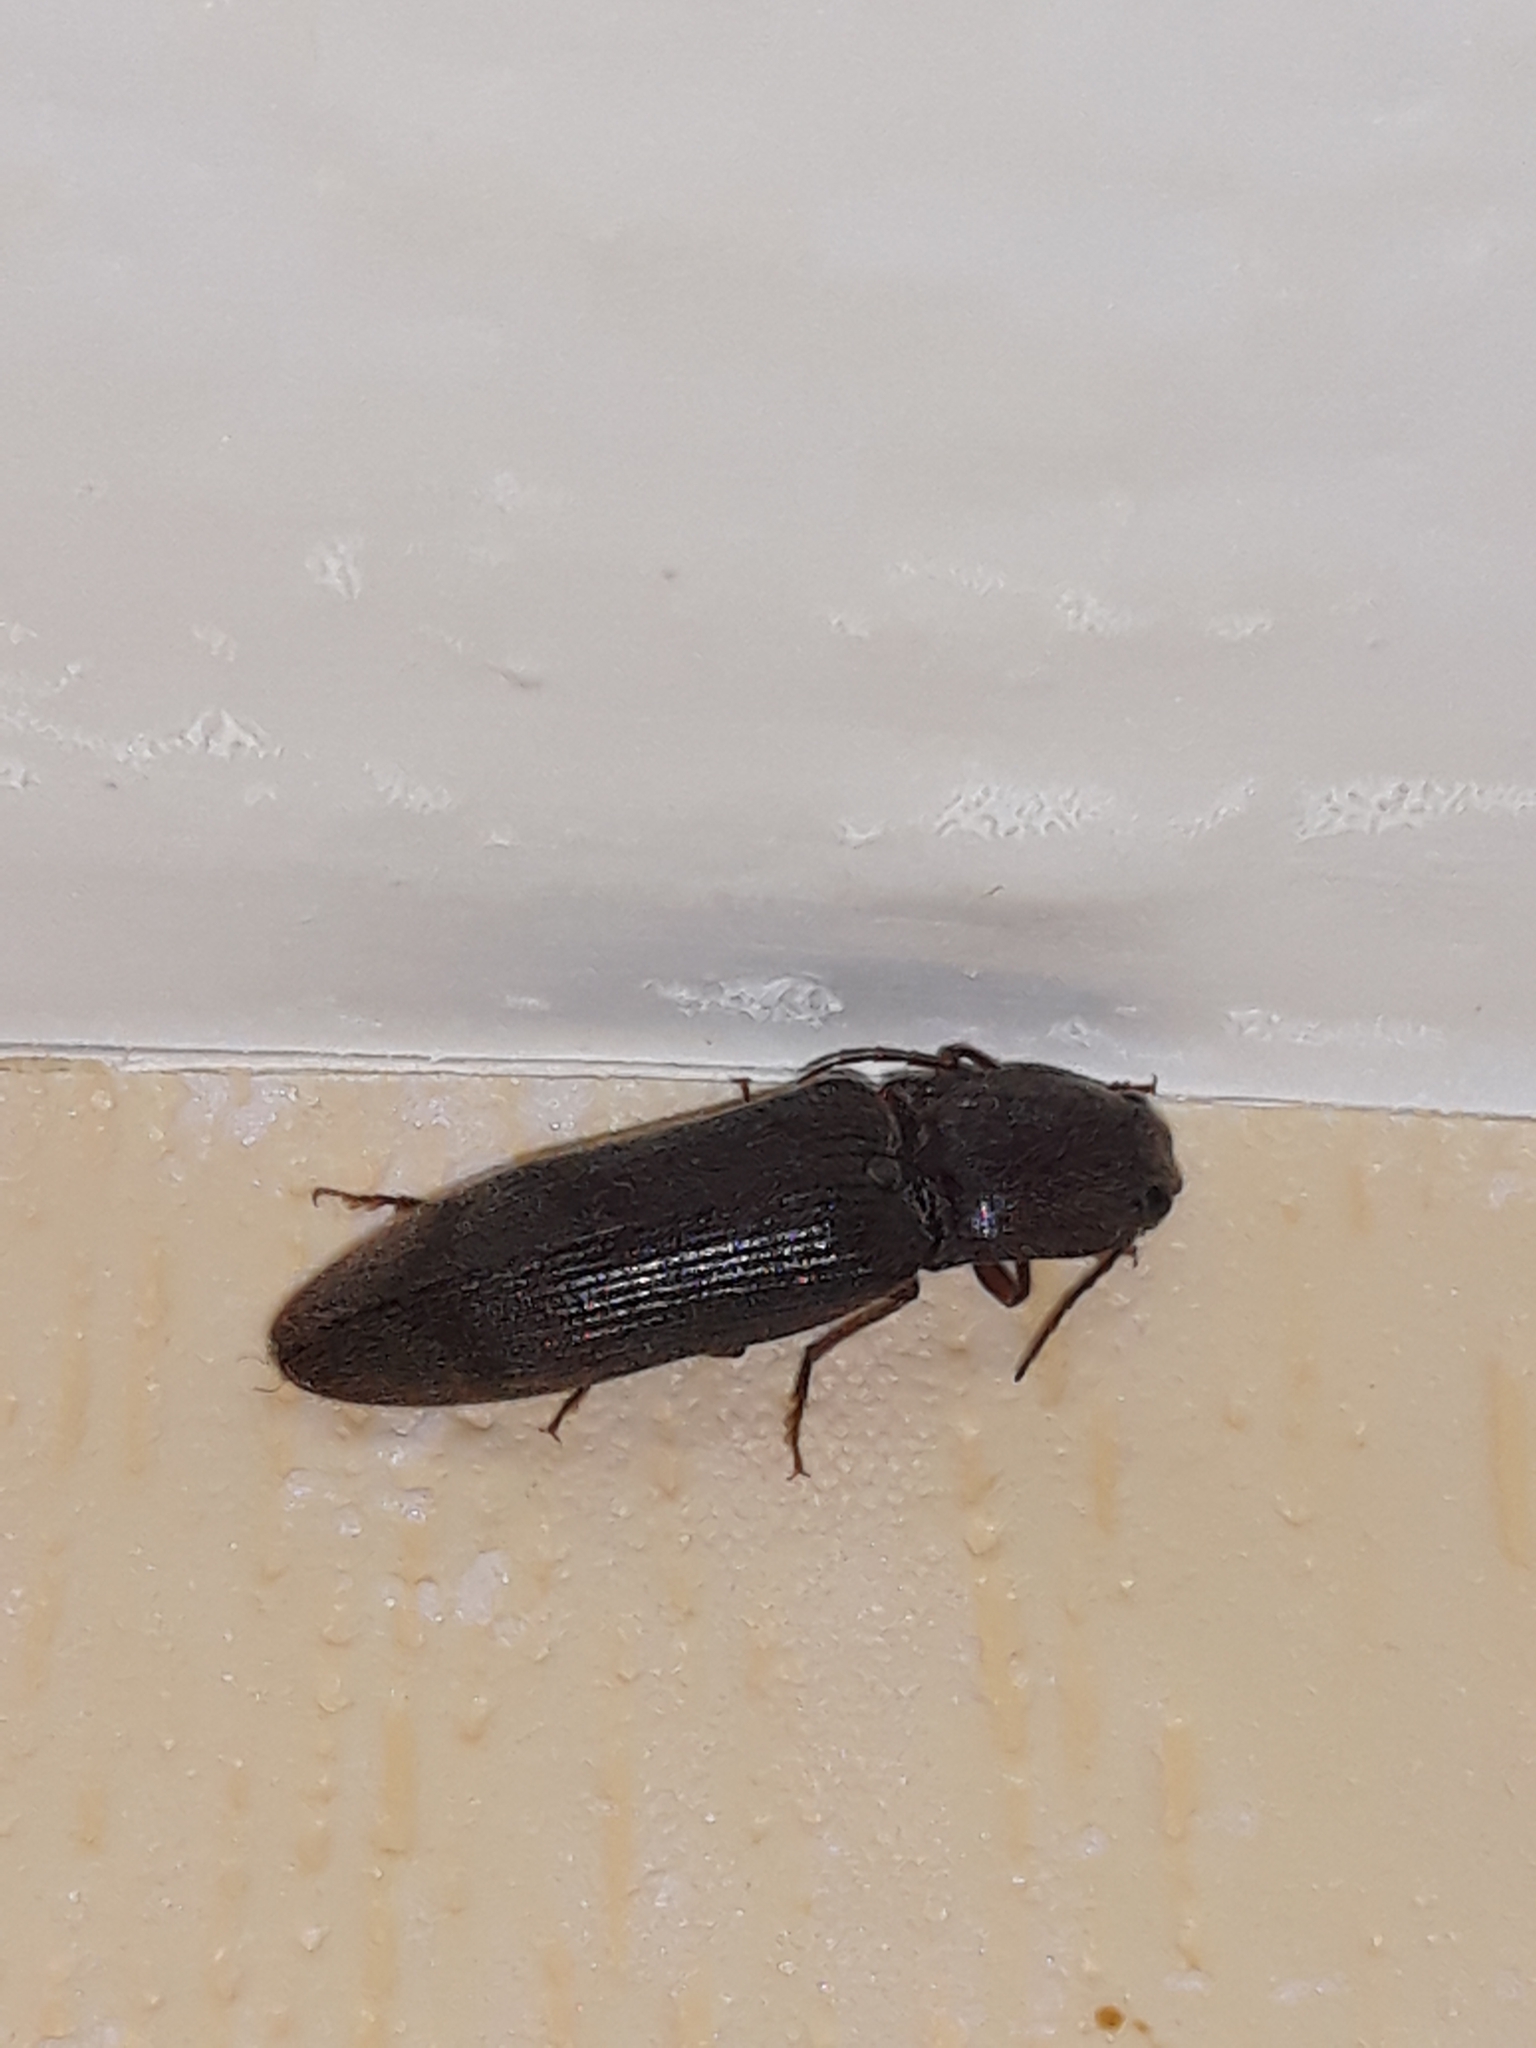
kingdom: Animalia
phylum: Arthropoda
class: Insecta
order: Coleoptera
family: Elateridae
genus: Stenagostus
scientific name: Stenagostus rhombeus
